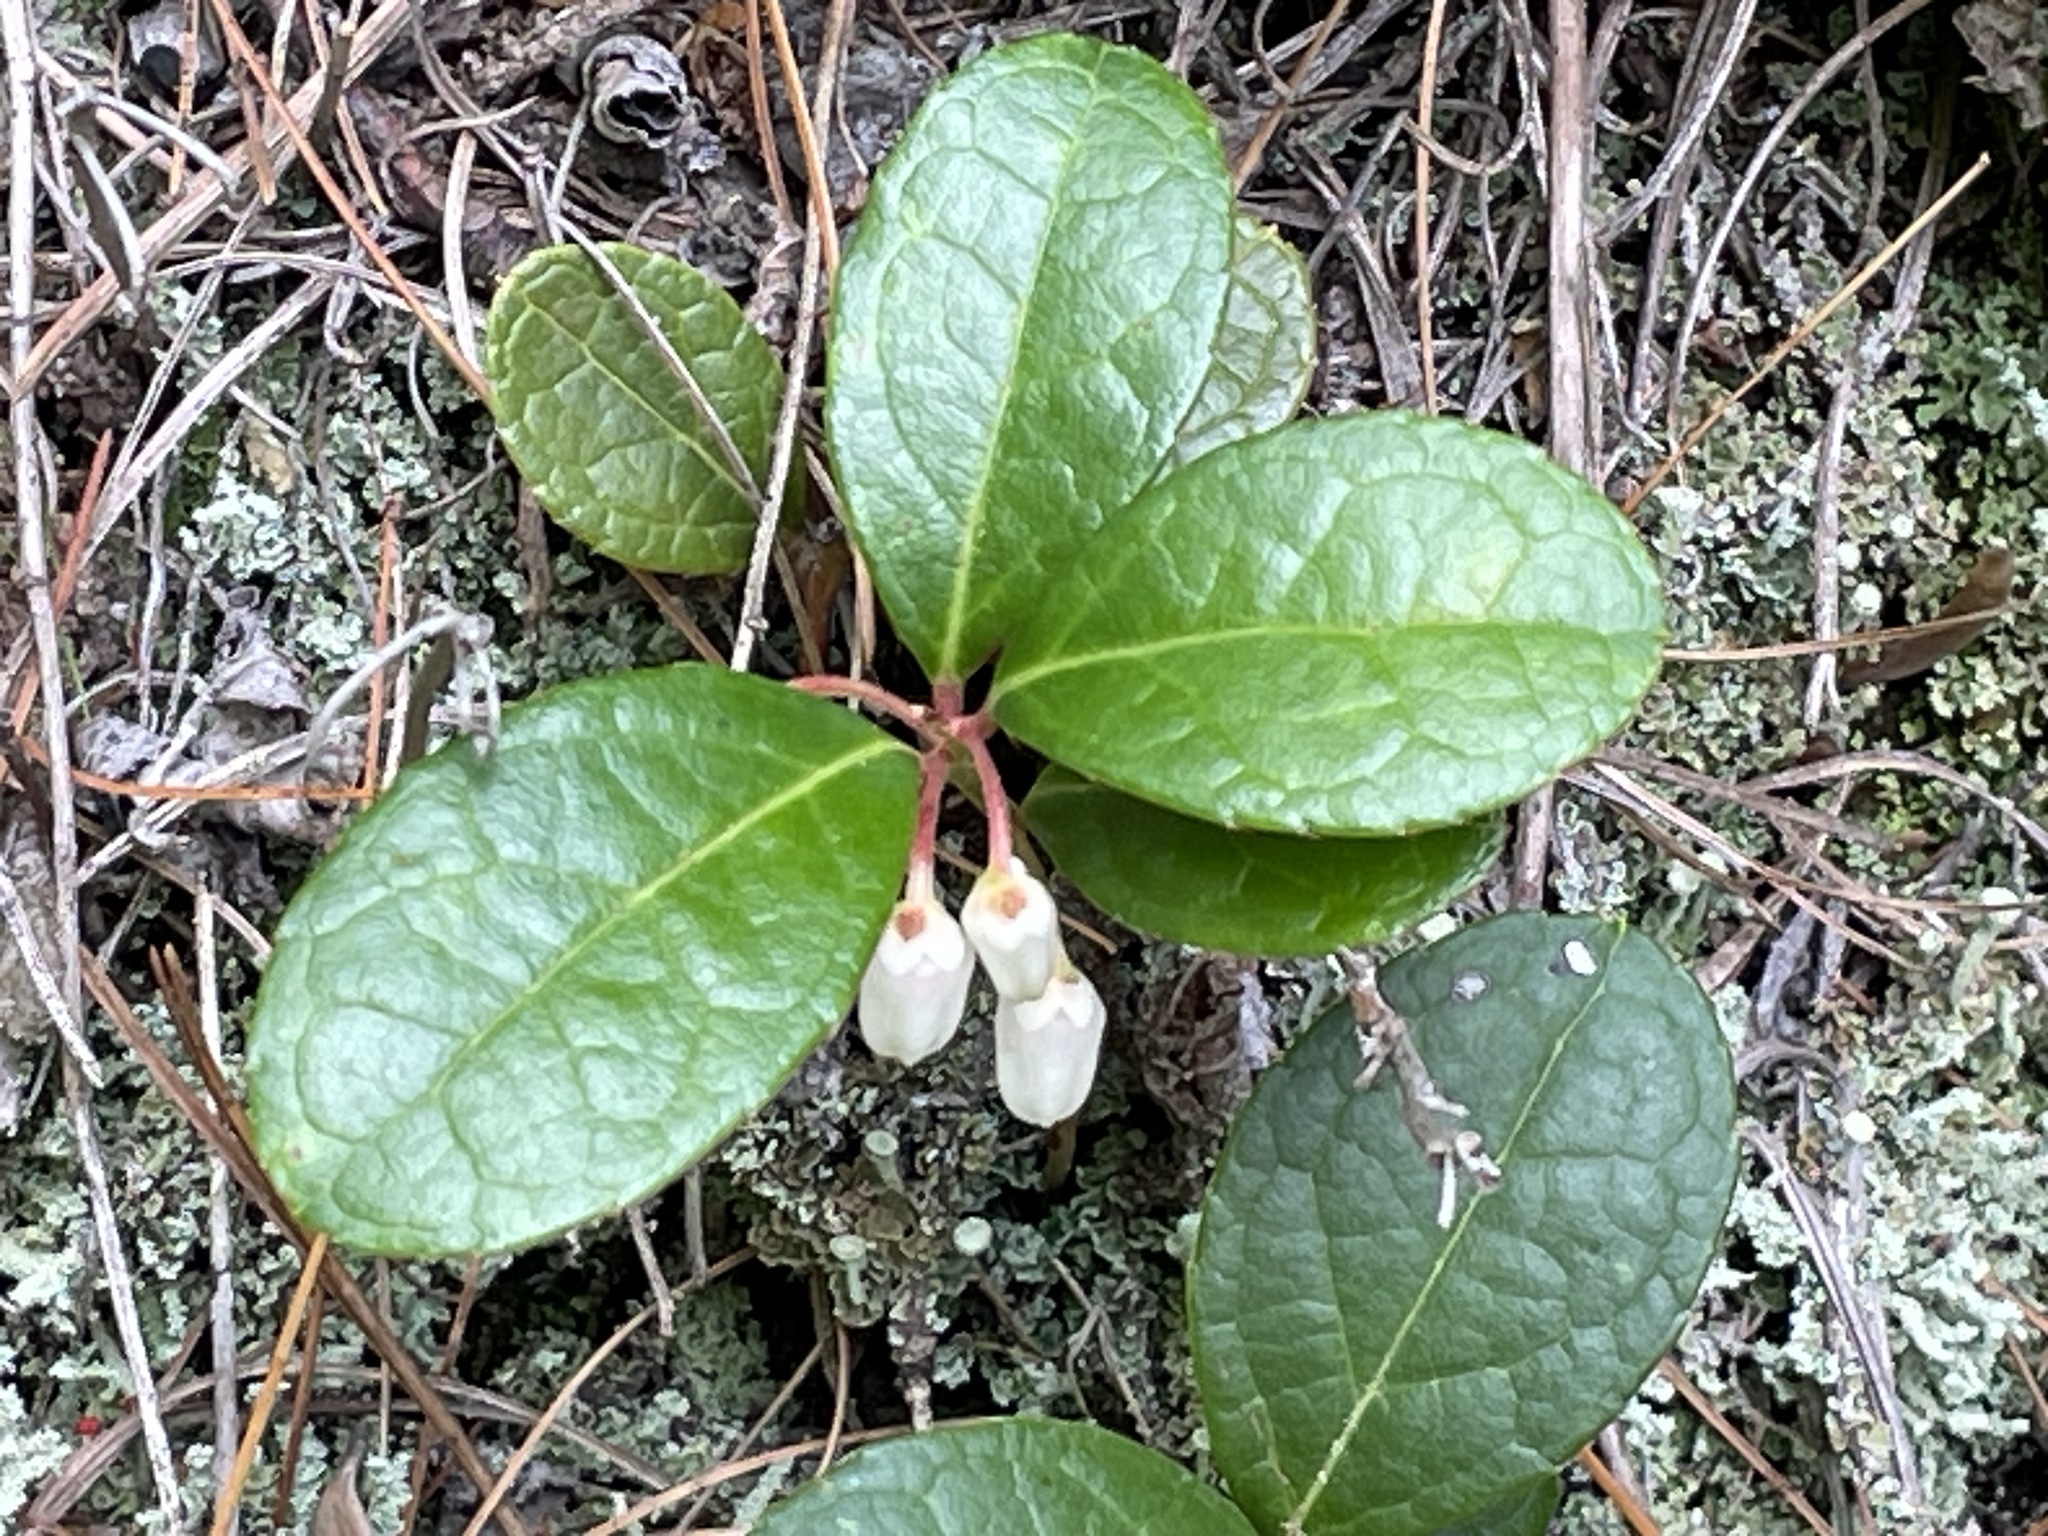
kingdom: Plantae
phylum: Tracheophyta
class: Magnoliopsida
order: Ericales
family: Ericaceae
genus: Gaultheria
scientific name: Gaultheria procumbens
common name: Checkerberry
